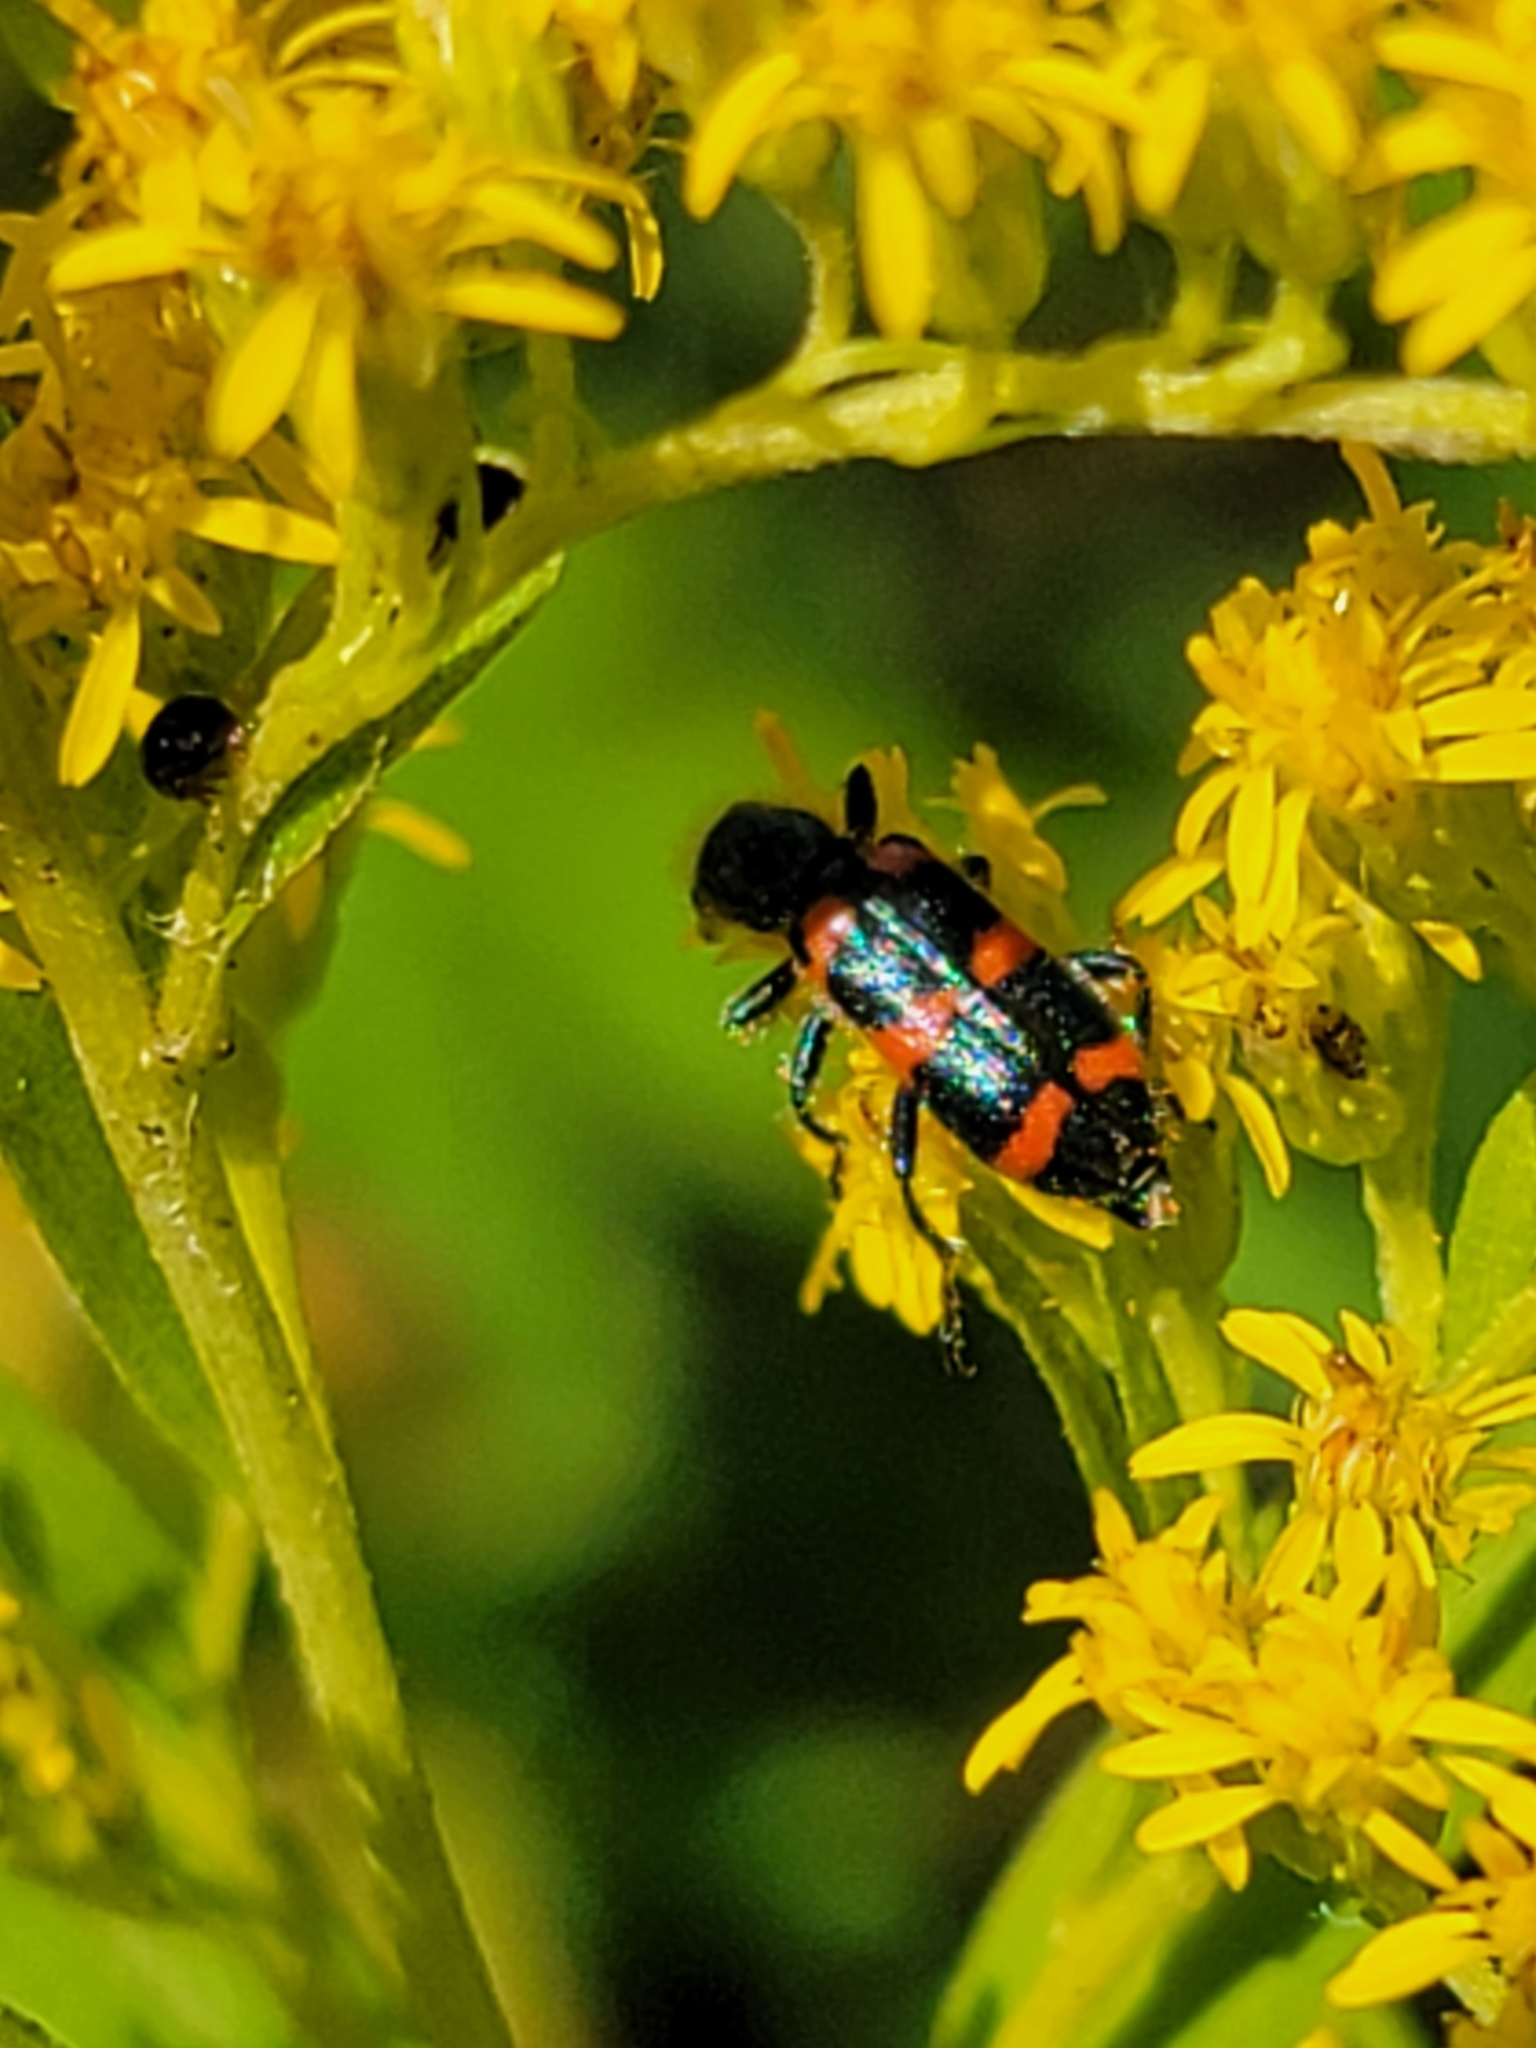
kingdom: Animalia
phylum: Arthropoda
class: Insecta
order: Coleoptera
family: Cleridae
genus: Trichodes
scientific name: Trichodes nutalli
